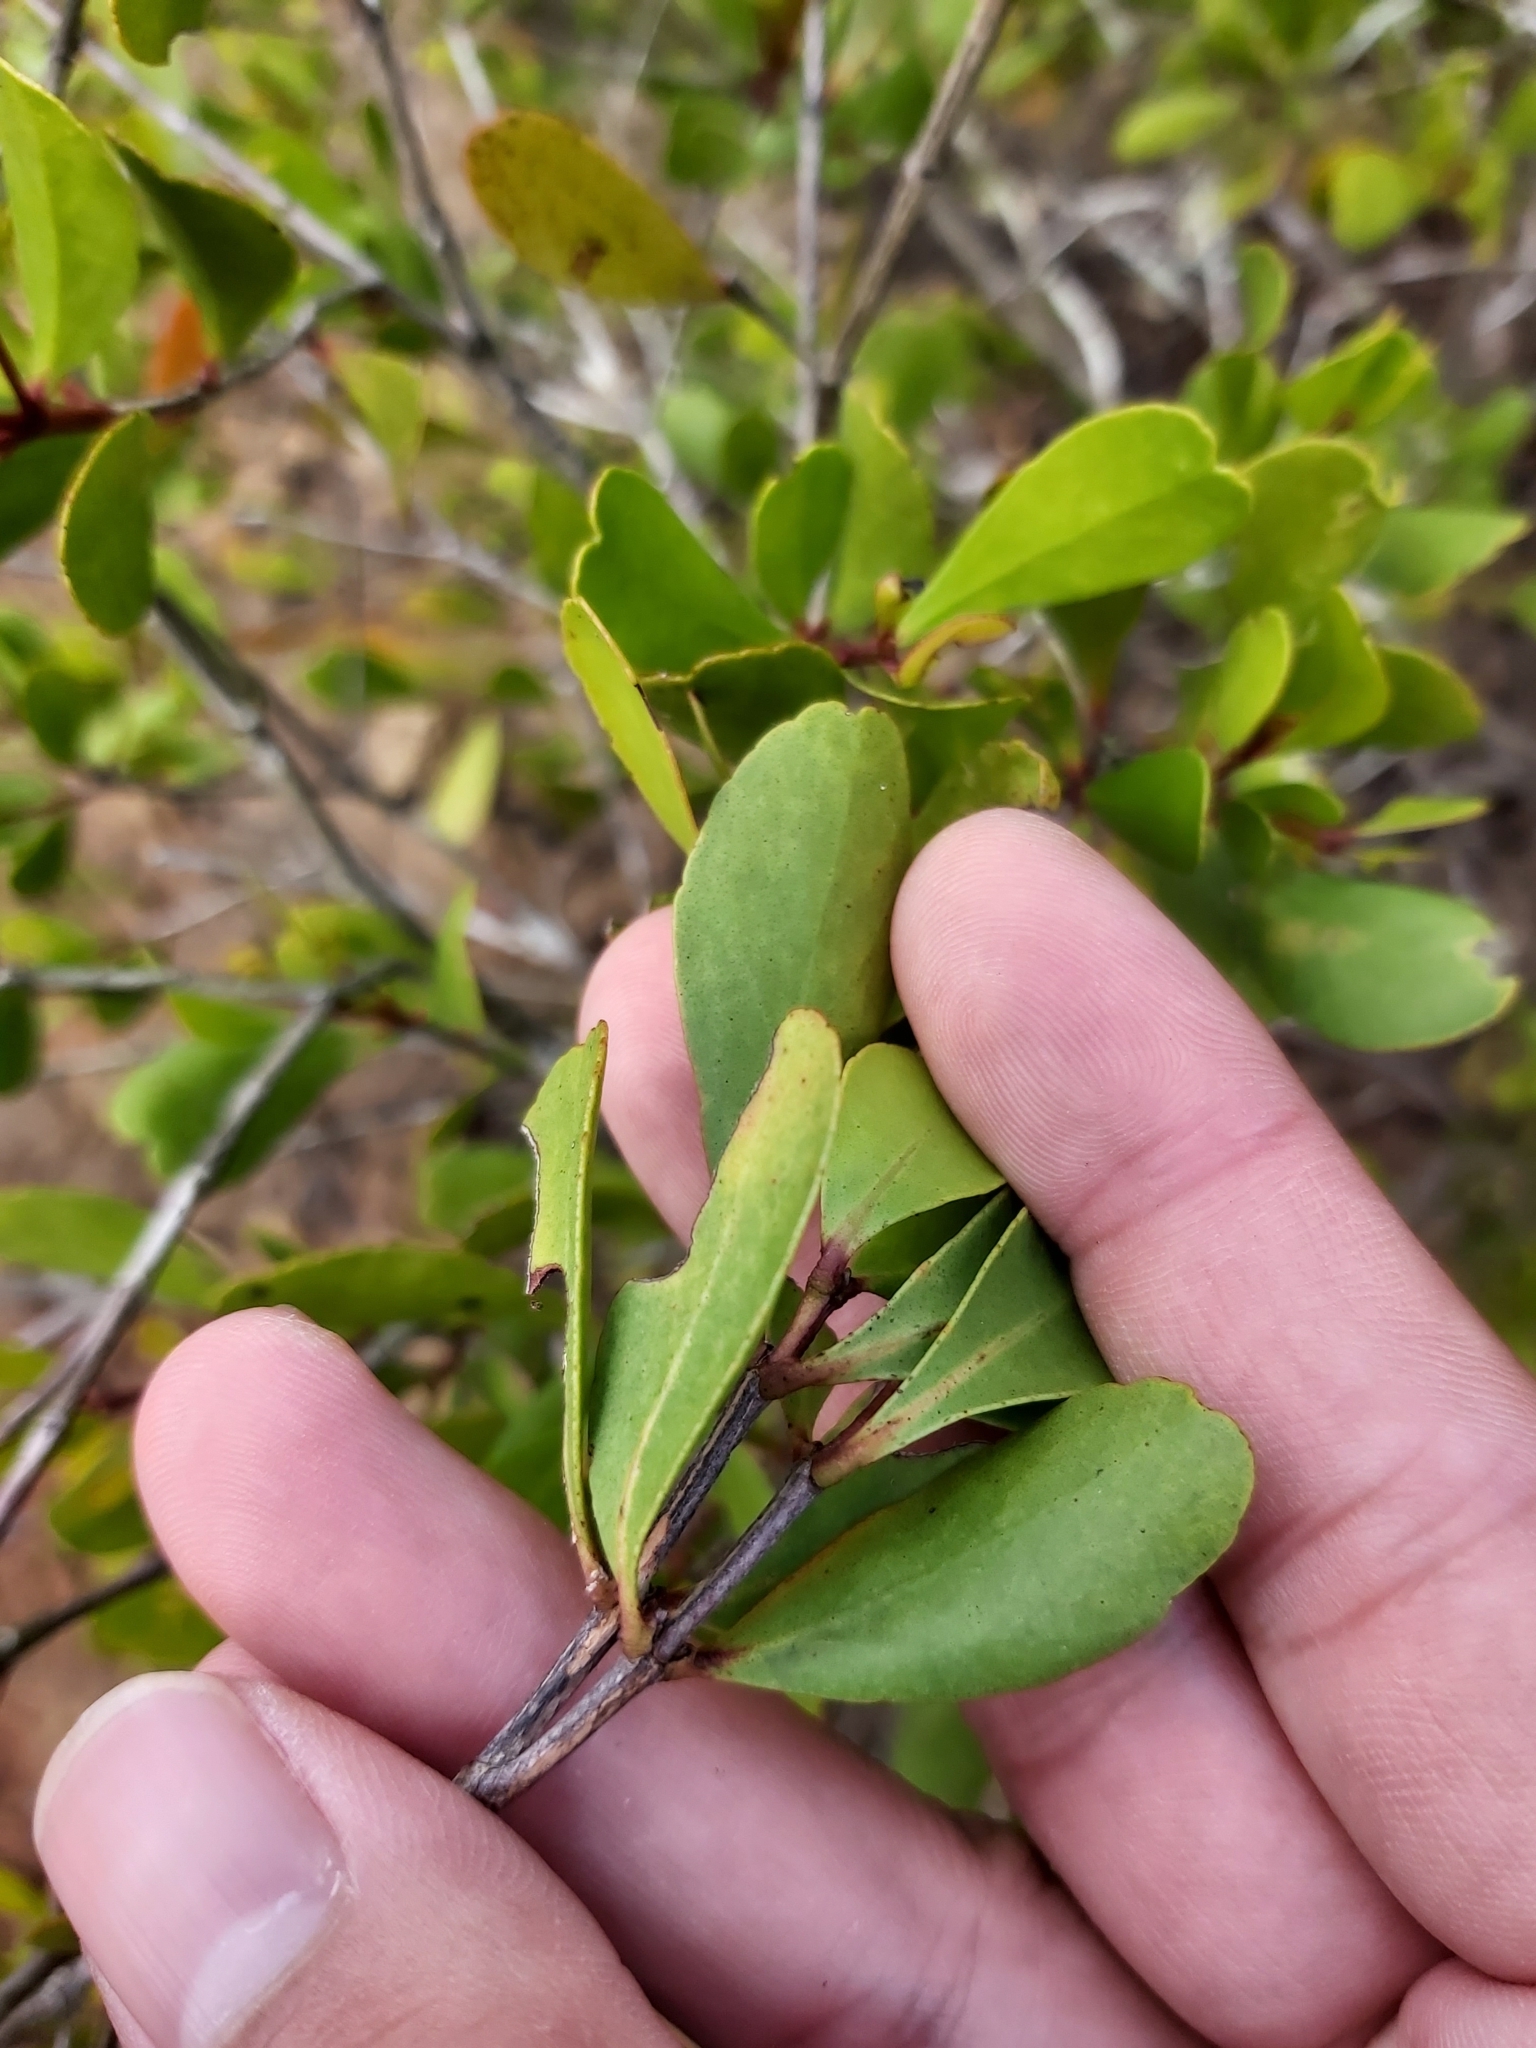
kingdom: Plantae
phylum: Tracheophyta
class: Magnoliopsida
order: Myrtales
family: Myrtaceae
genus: Osbornia
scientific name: Osbornia octodonta
